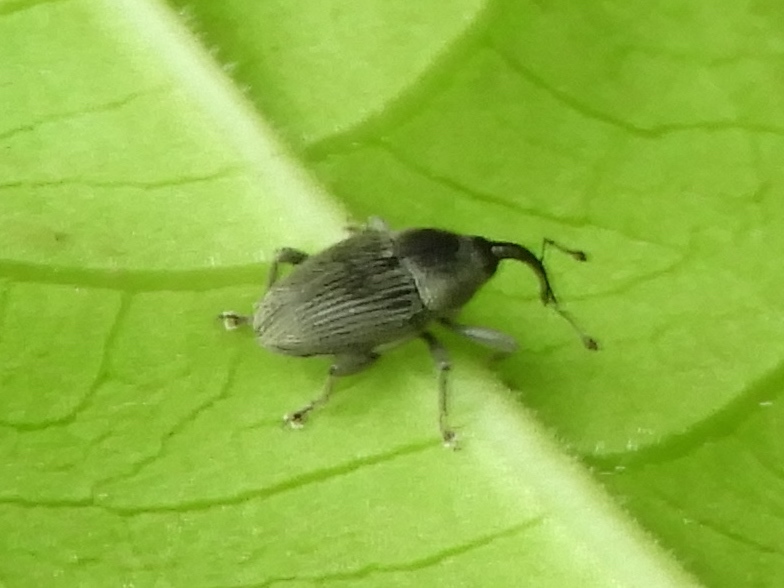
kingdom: Animalia
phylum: Arthropoda
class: Insecta
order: Coleoptera
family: Curculionidae
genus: Odontocorynus
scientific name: Odontocorynus
